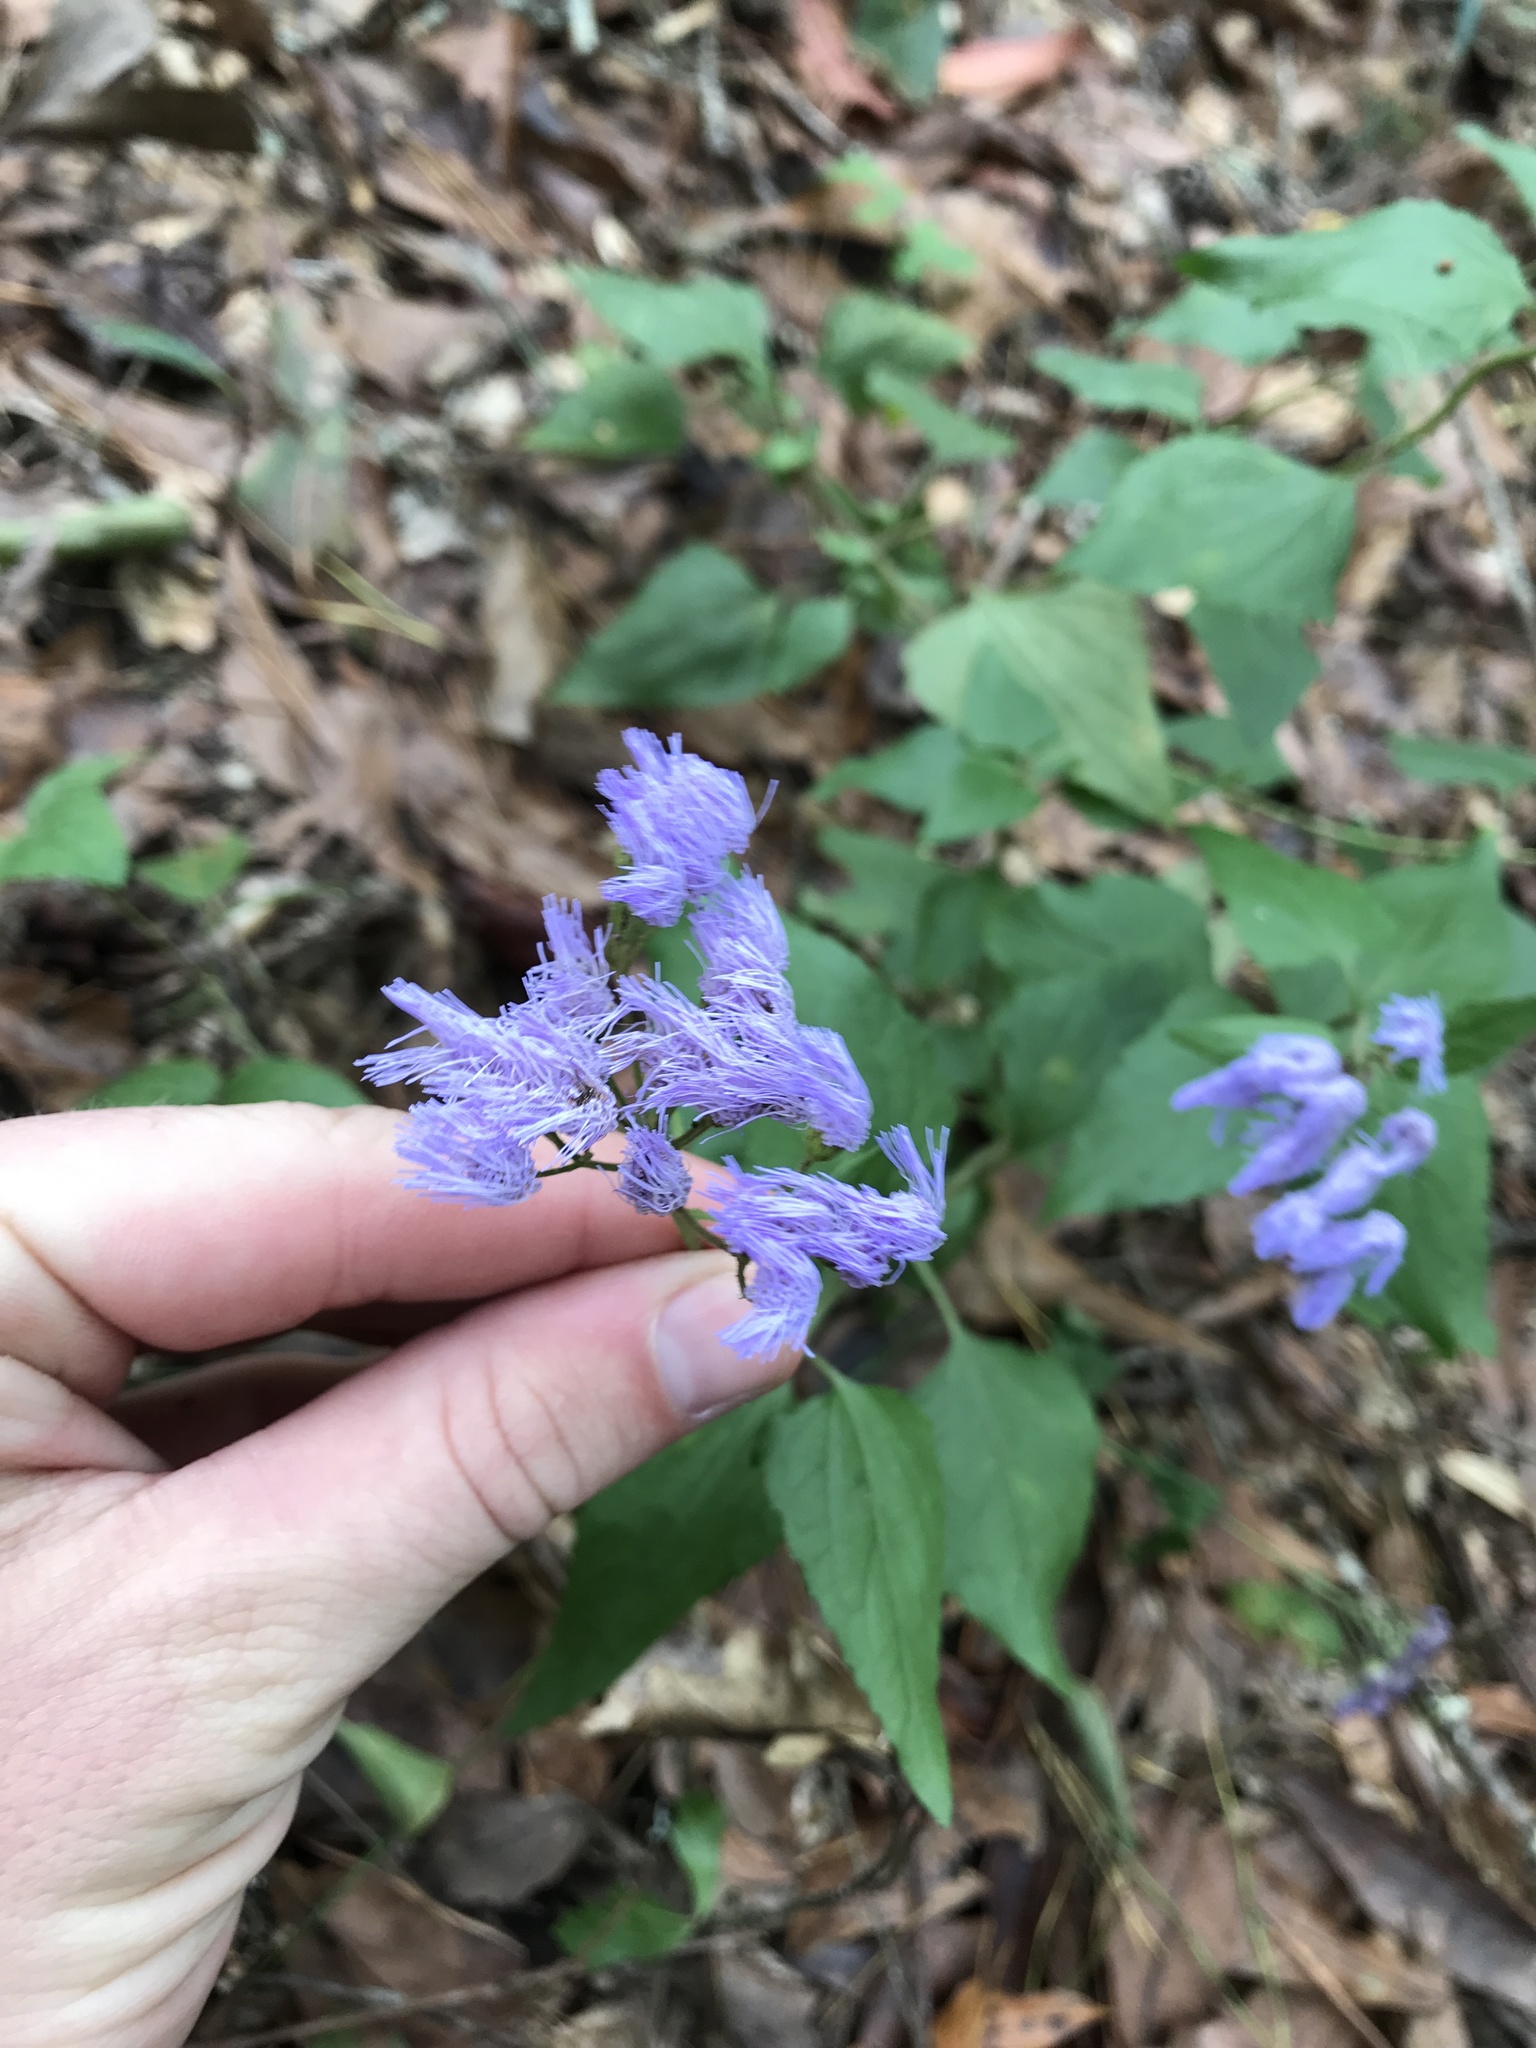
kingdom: Plantae
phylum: Tracheophyta
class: Magnoliopsida
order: Asterales
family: Asteraceae
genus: Conoclinium
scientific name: Conoclinium coelestinum
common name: Blue mistflower
